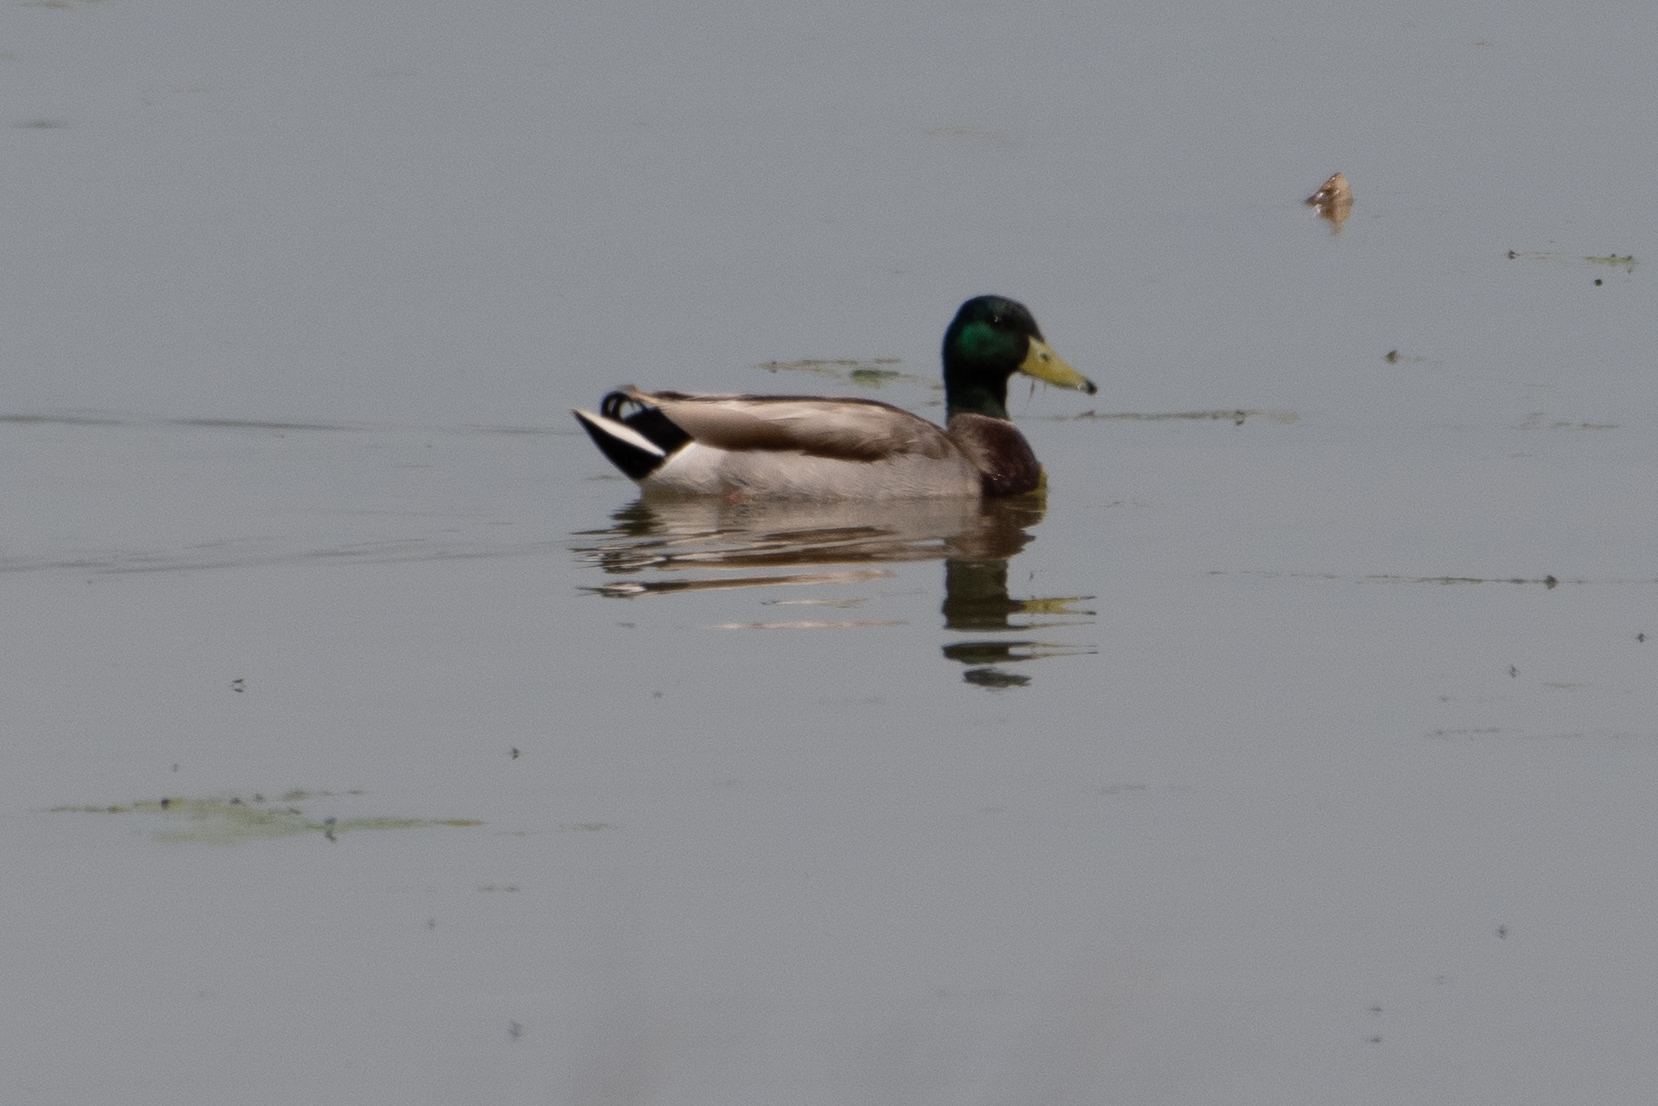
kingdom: Animalia
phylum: Chordata
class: Aves
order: Anseriformes
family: Anatidae
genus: Anas
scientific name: Anas platyrhynchos
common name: Mallard
